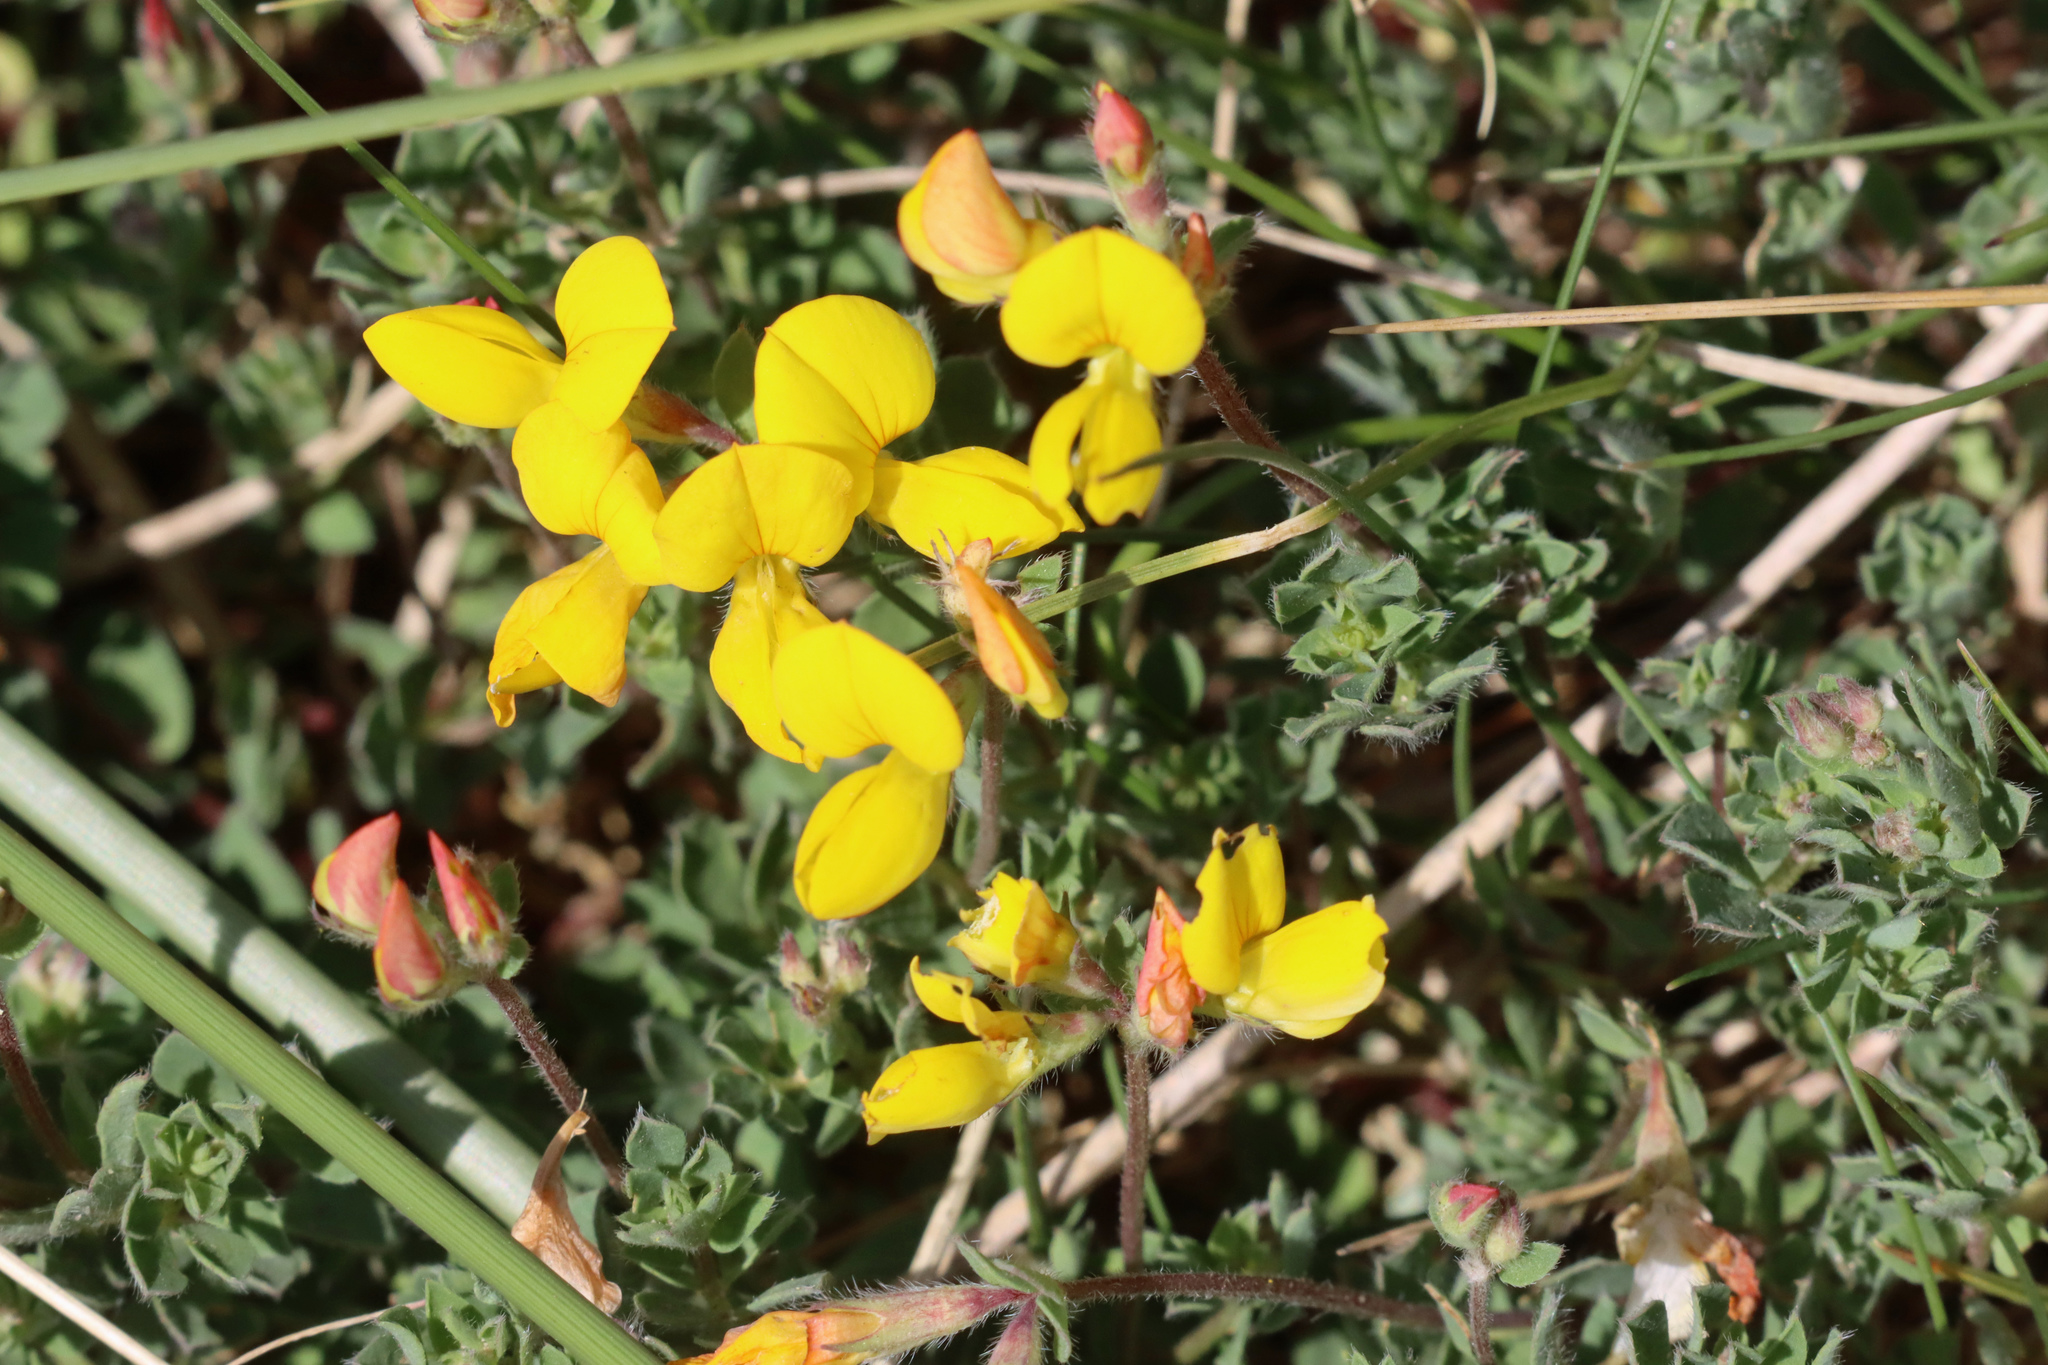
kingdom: Plantae
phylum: Tracheophyta
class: Magnoliopsida
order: Fabales
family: Fabaceae
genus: Lotus
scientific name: Lotus corniculatus
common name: Common bird's-foot-trefoil
